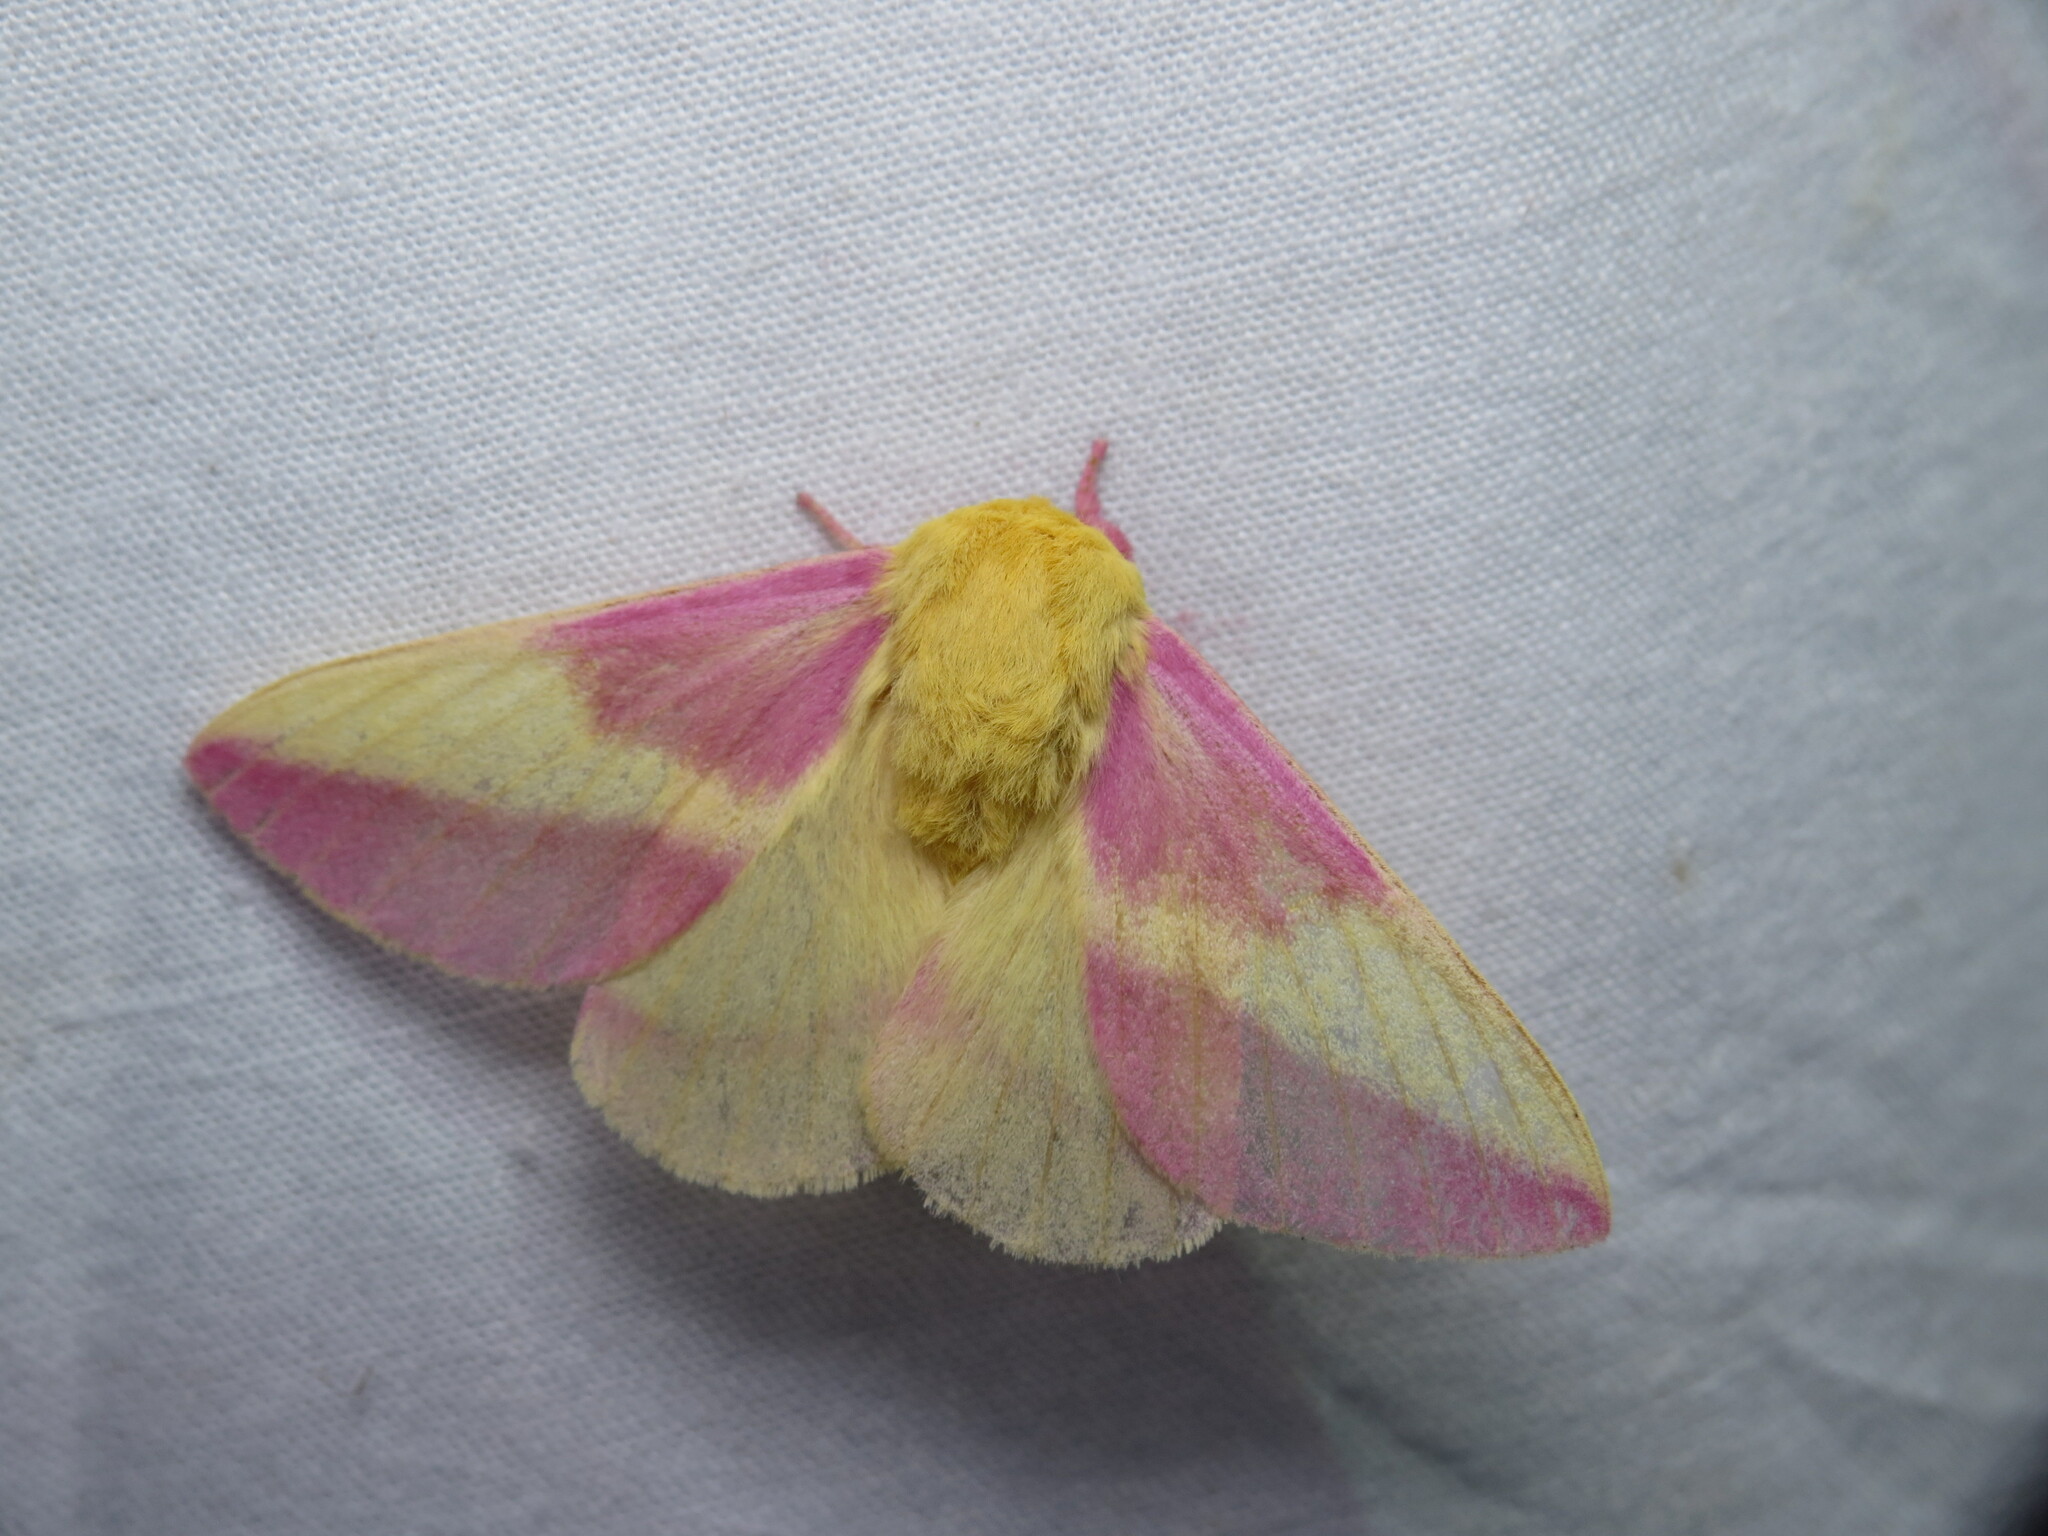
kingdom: Animalia
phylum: Arthropoda
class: Insecta
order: Lepidoptera
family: Saturniidae
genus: Dryocampa
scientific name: Dryocampa rubicunda
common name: Rosy maple moth
